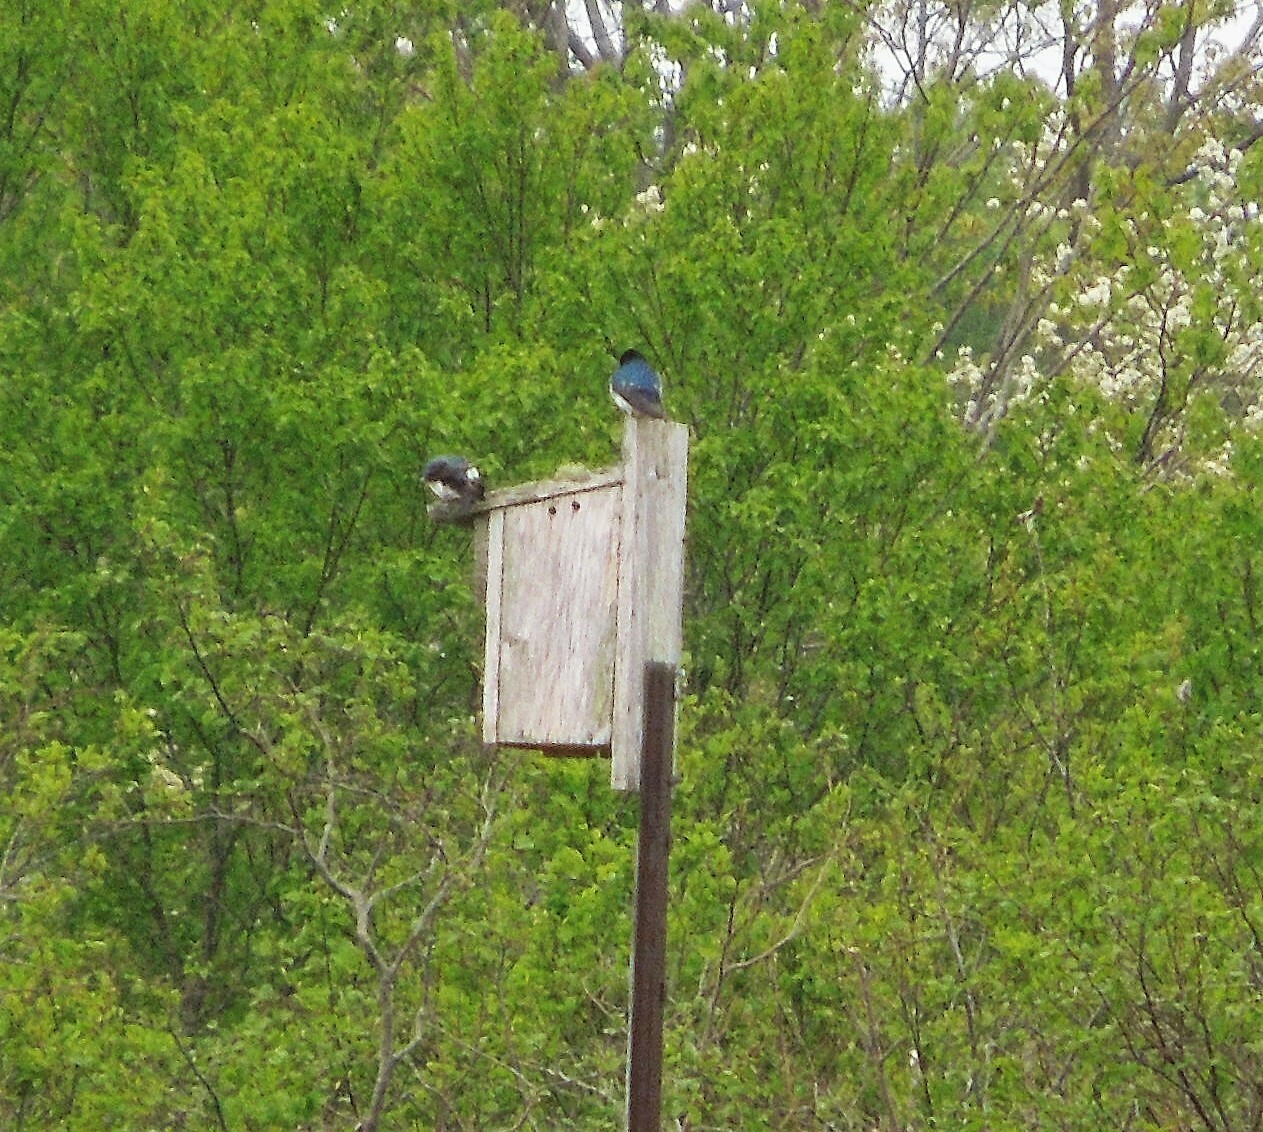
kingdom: Animalia
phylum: Chordata
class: Aves
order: Passeriformes
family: Hirundinidae
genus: Tachycineta
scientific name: Tachycineta bicolor
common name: Tree swallow
